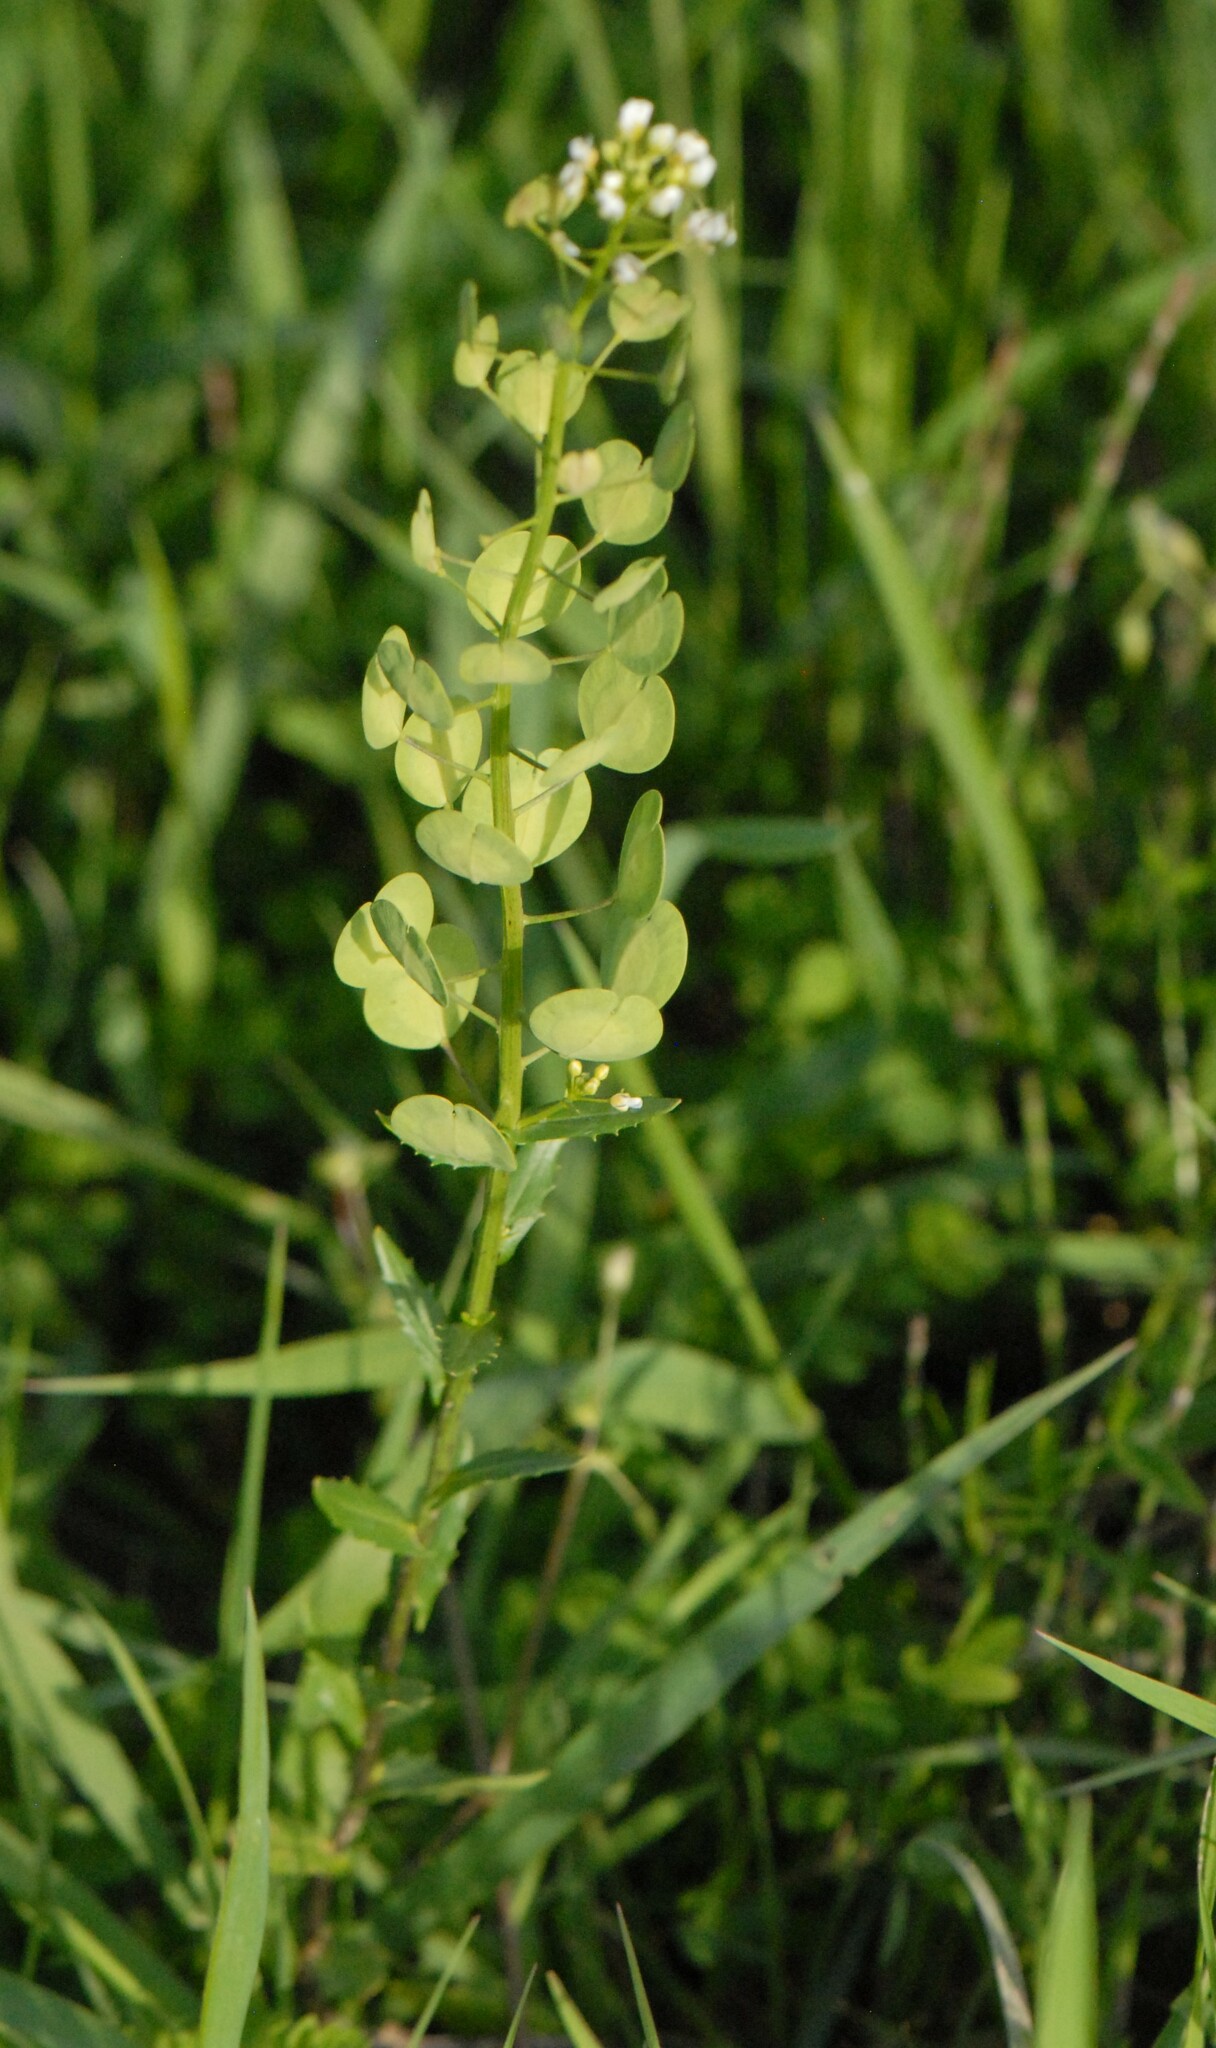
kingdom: Plantae
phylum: Tracheophyta
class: Magnoliopsida
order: Brassicales
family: Brassicaceae
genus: Thlaspi
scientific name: Thlaspi arvense
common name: Field pennycress
